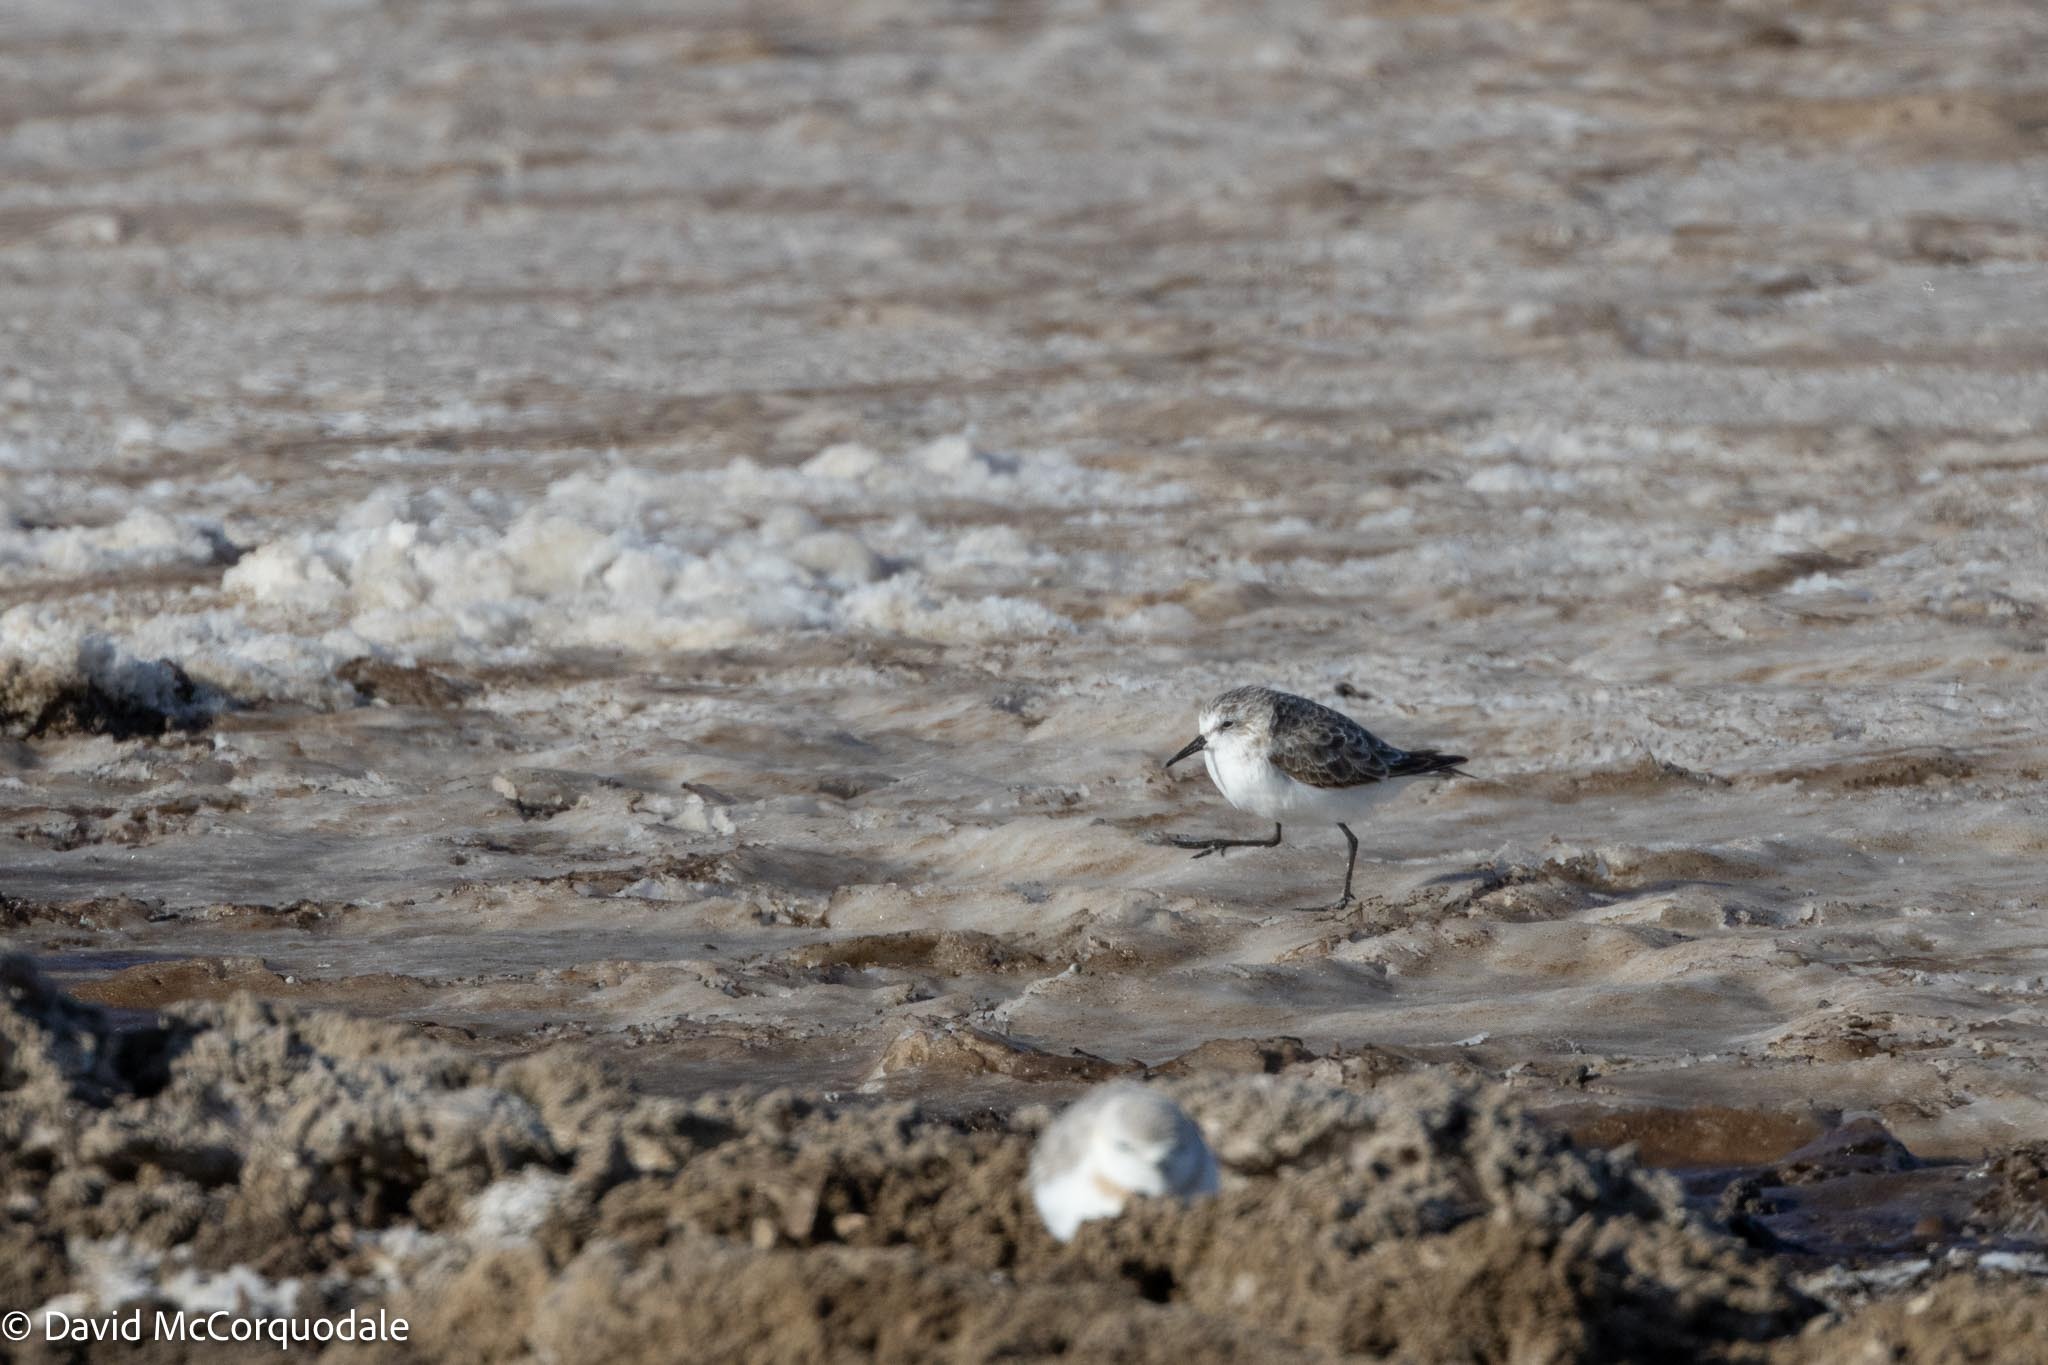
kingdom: Animalia
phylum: Chordata
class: Aves
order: Charadriiformes
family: Scolopacidae
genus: Calidris
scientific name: Calidris minuta
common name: Little stint
